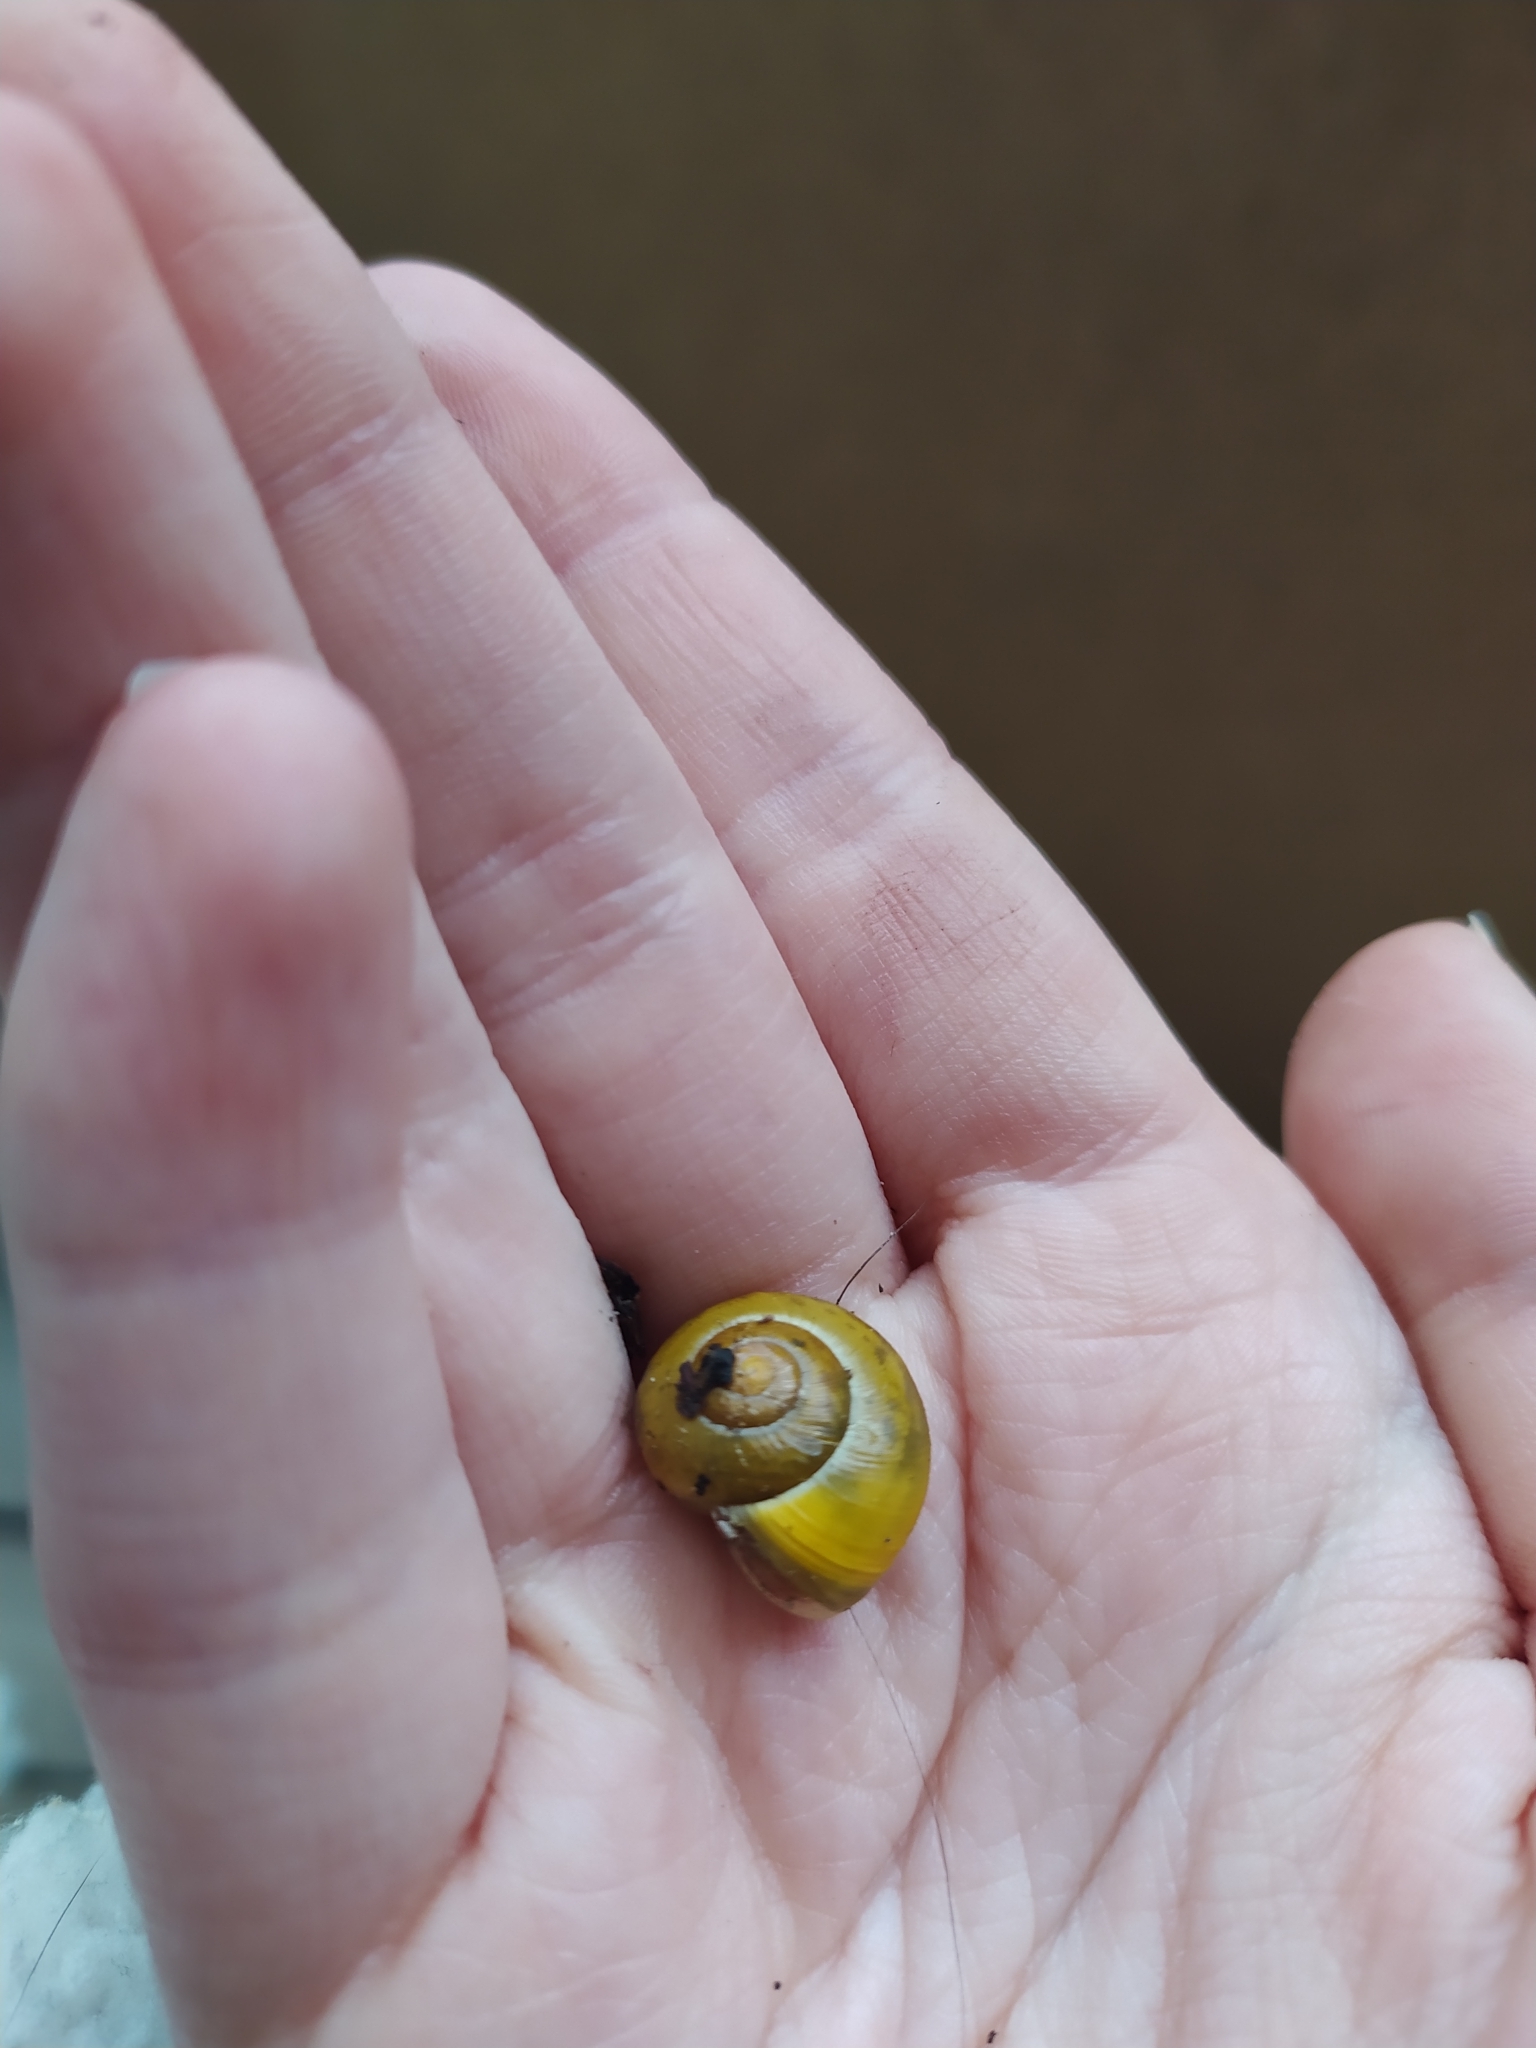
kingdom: Animalia
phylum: Mollusca
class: Gastropoda
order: Stylommatophora
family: Helicidae
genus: Cepaea
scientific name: Cepaea
